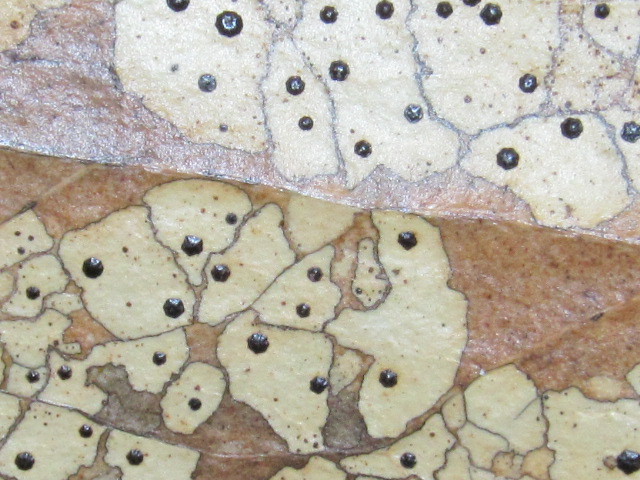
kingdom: Fungi
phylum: Ascomycota
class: Leotiomycetes
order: Rhytismatales
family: Rhytismataceae
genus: Coccomyces
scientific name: Coccomyces dentatus
